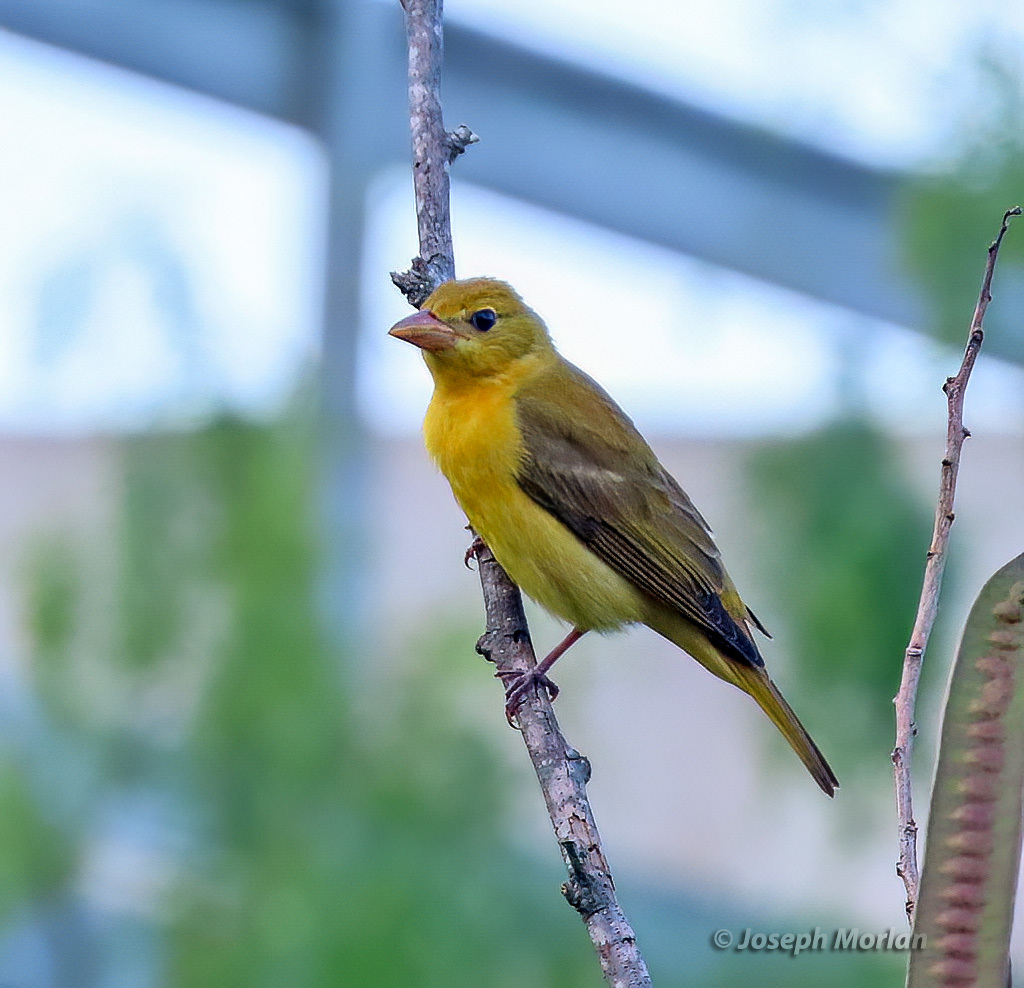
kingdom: Animalia
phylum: Chordata
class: Aves
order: Passeriformes
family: Cardinalidae
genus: Piranga
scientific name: Piranga rubra
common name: Summer tanager
